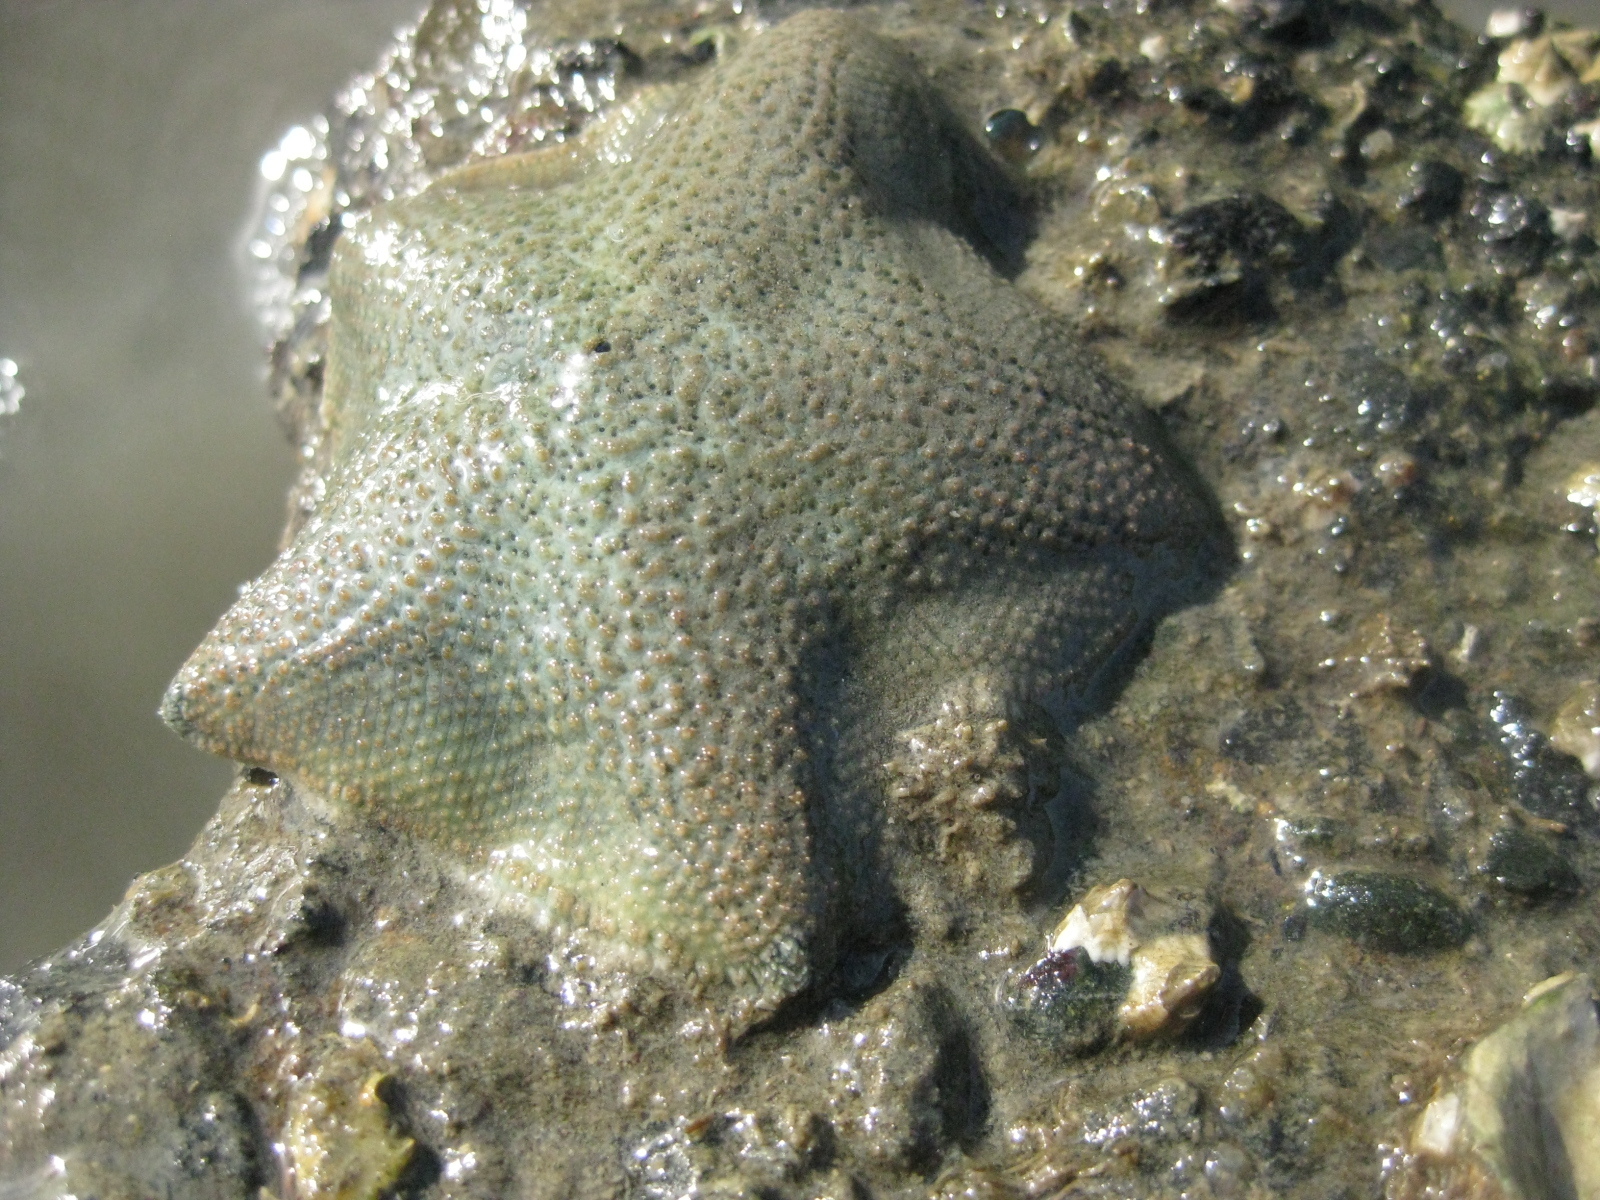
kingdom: Animalia
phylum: Echinodermata
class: Asteroidea
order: Valvatida
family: Asterinidae
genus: Patiriella
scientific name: Patiriella regularis
